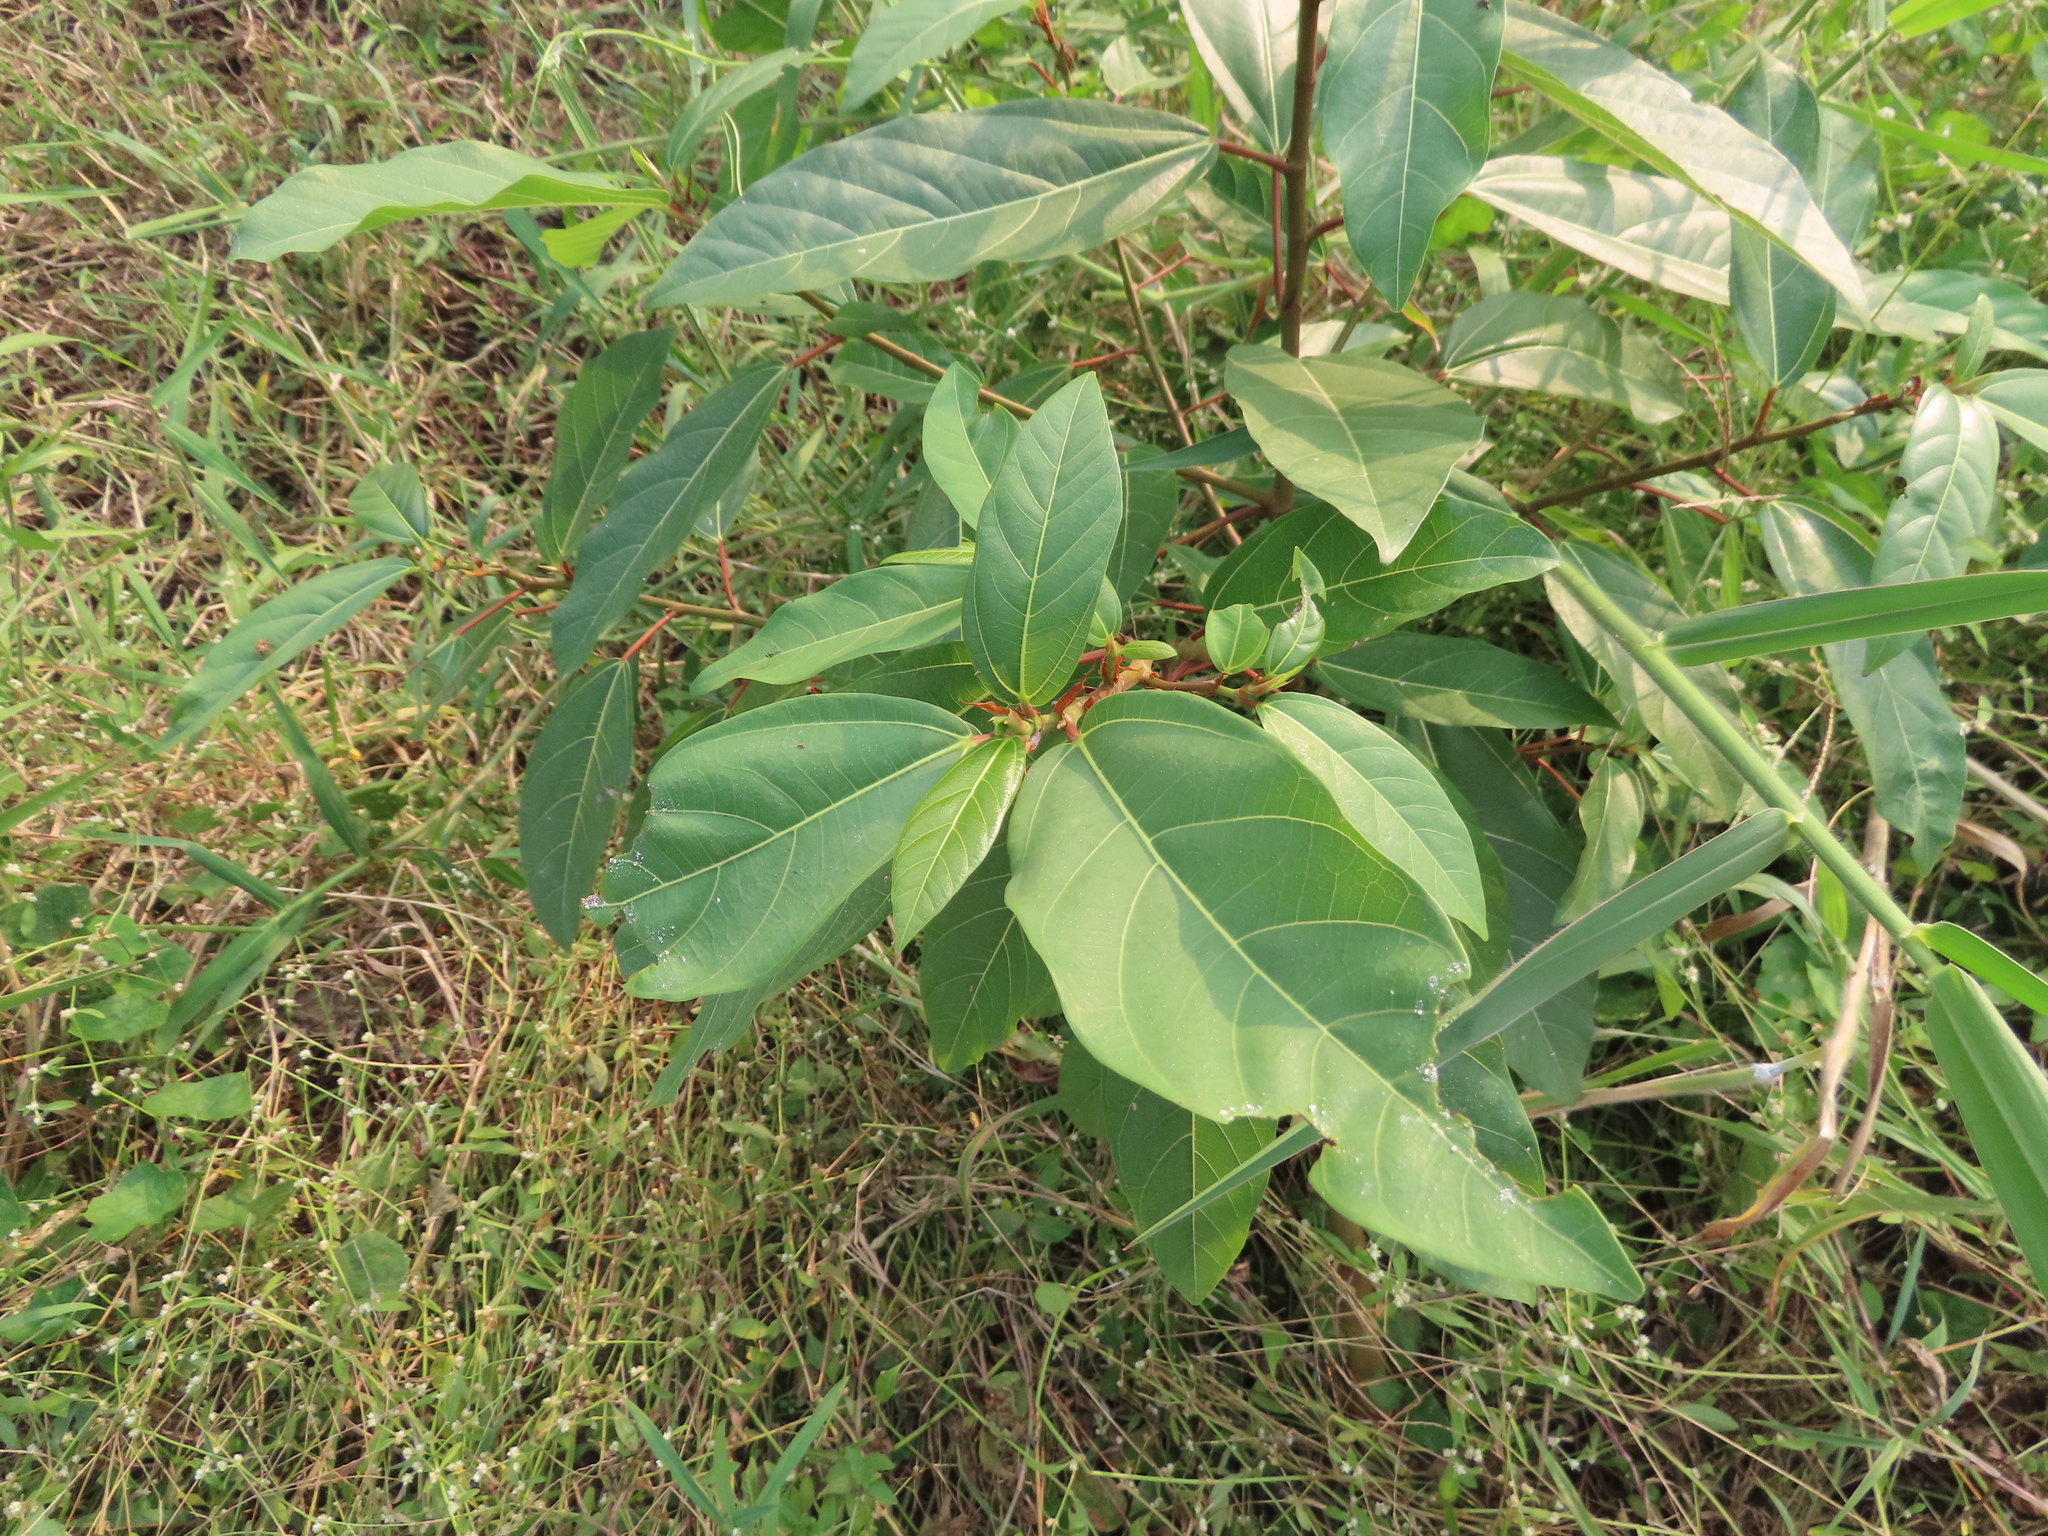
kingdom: Plantae
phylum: Tracheophyta
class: Magnoliopsida
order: Rosales
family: Moraceae
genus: Ficus
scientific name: Ficus racemosa
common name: Cluster fig
